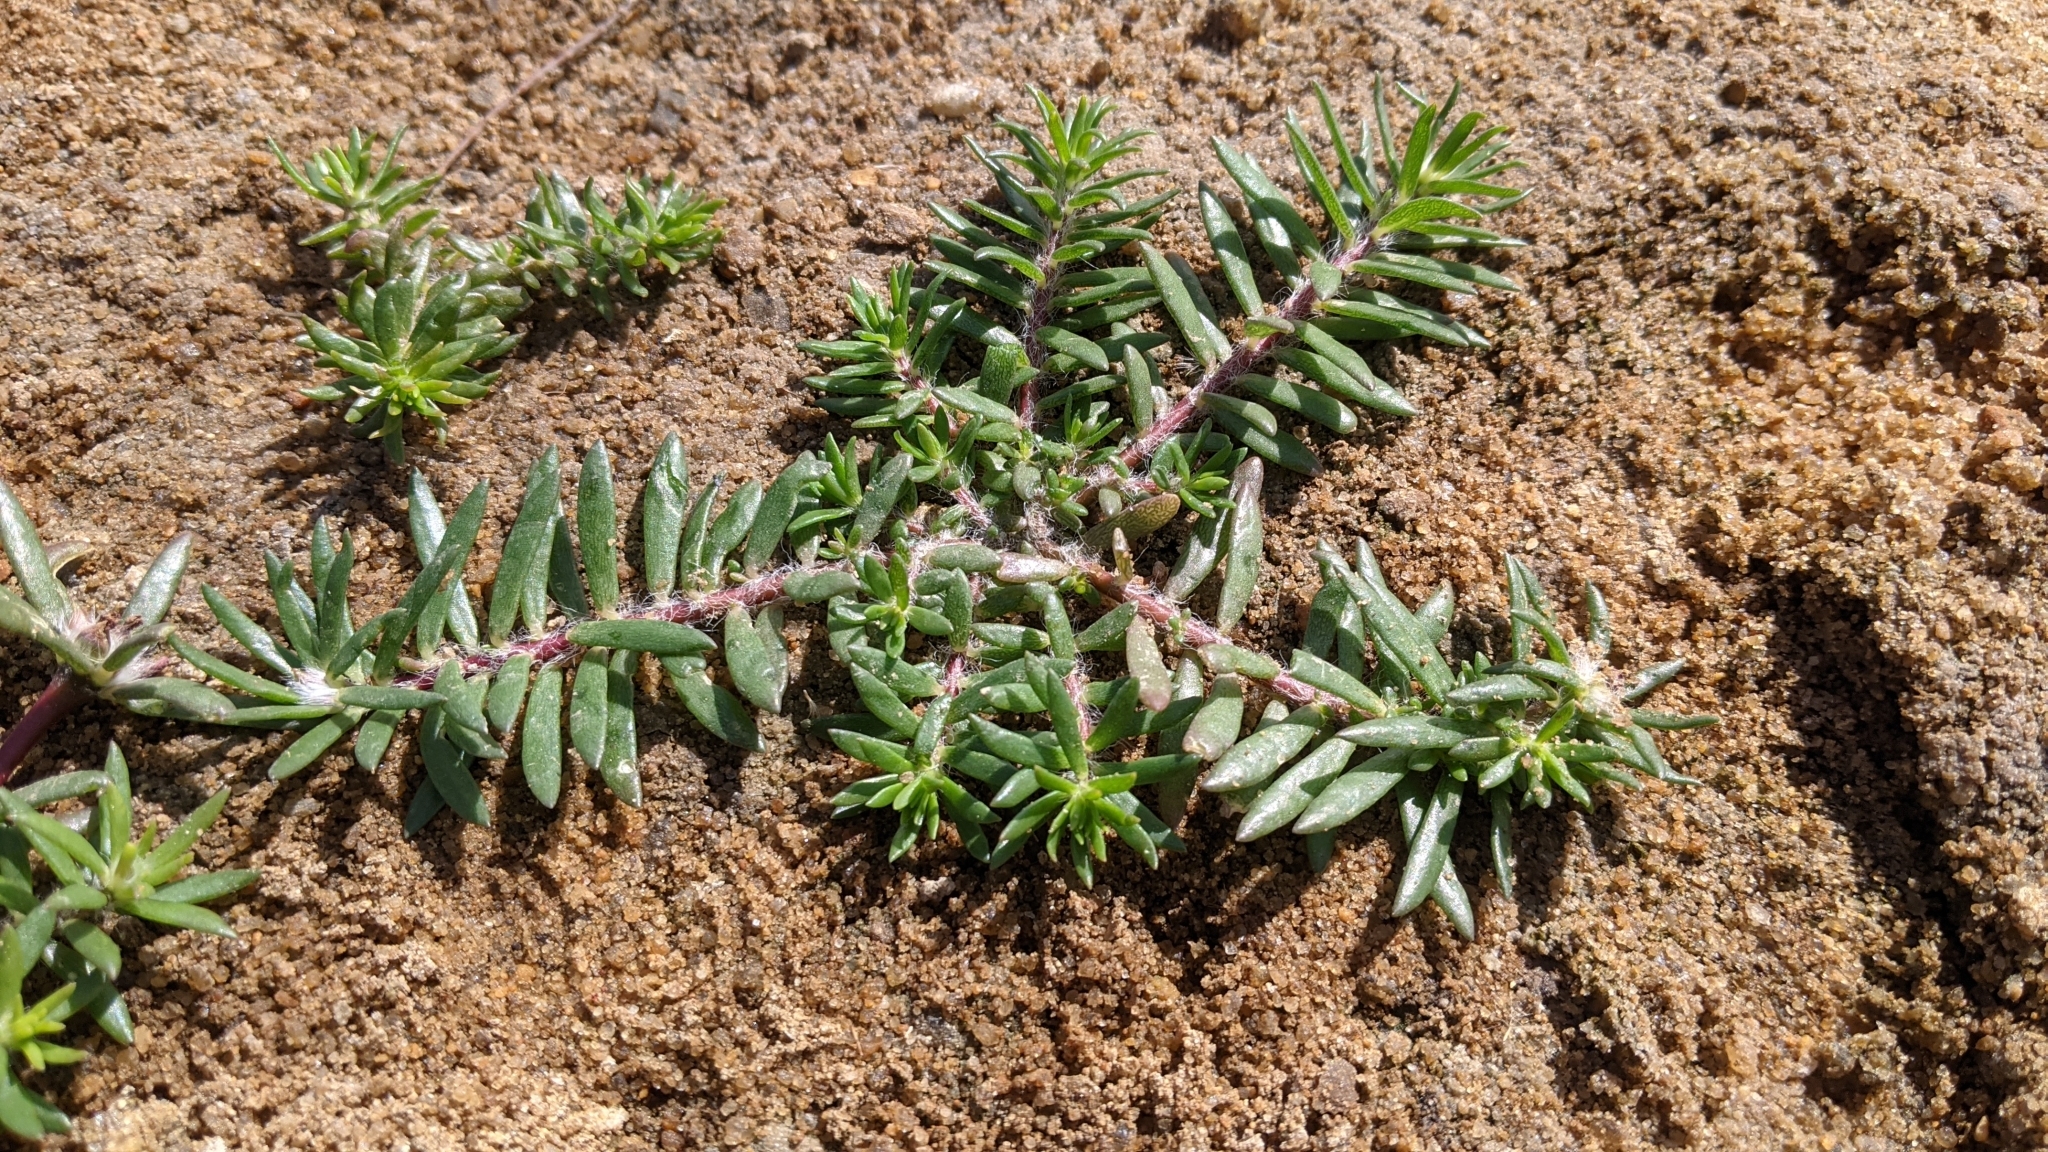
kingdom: Plantae
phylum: Tracheophyta
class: Magnoliopsida
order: Caryophyllales
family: Portulacaceae
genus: Portulaca
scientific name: Portulaca pilosa
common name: Kiss me quick
